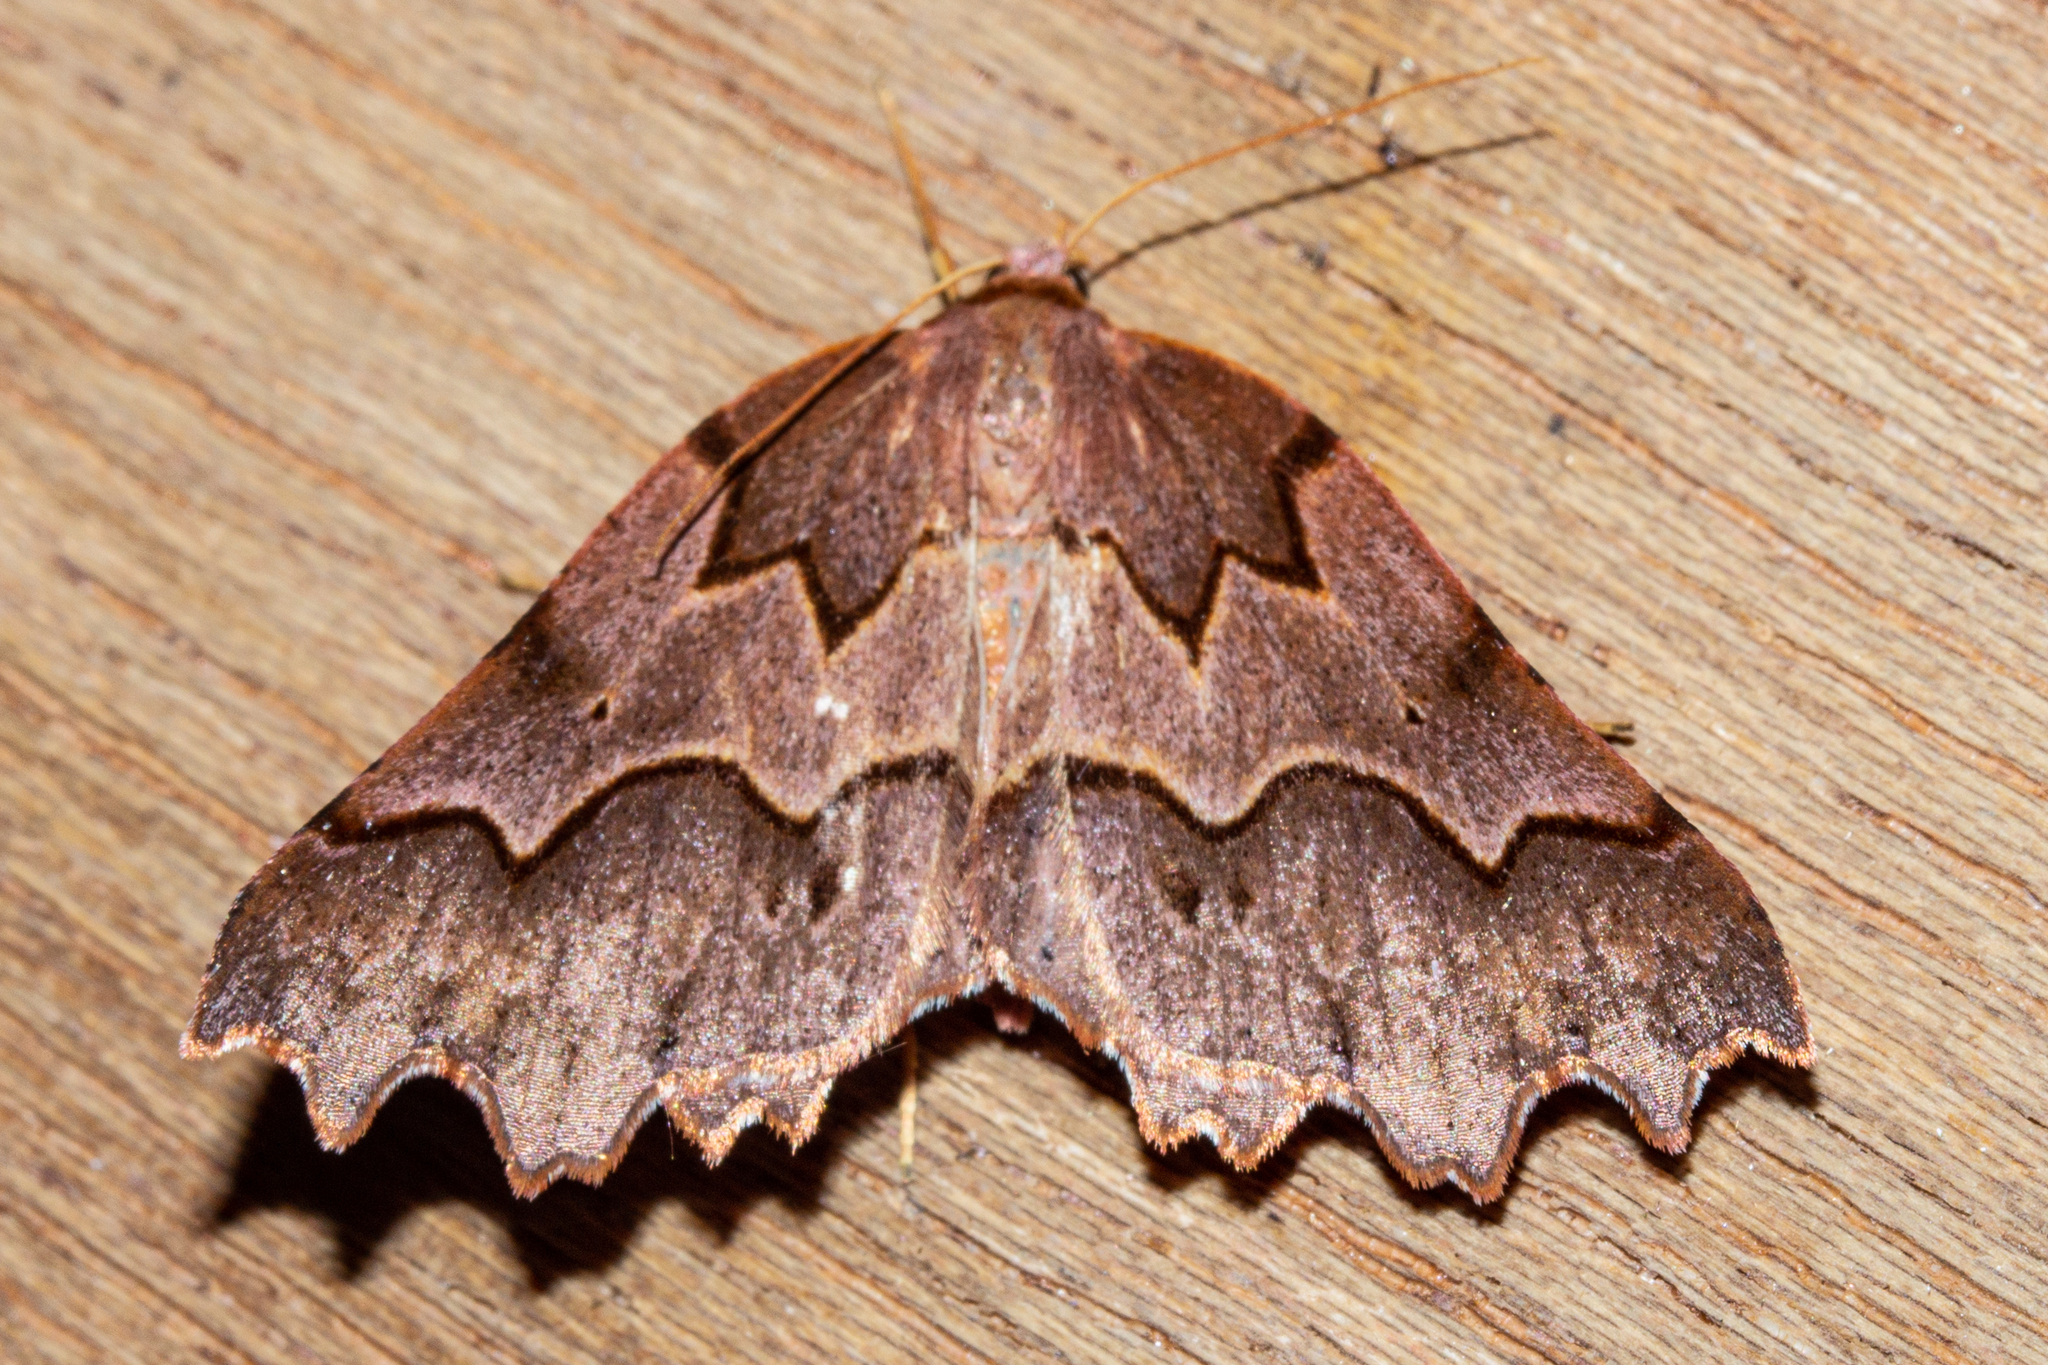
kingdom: Animalia
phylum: Arthropoda
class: Insecta
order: Lepidoptera
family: Geometridae
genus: Ischalis
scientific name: Ischalis fortinata
